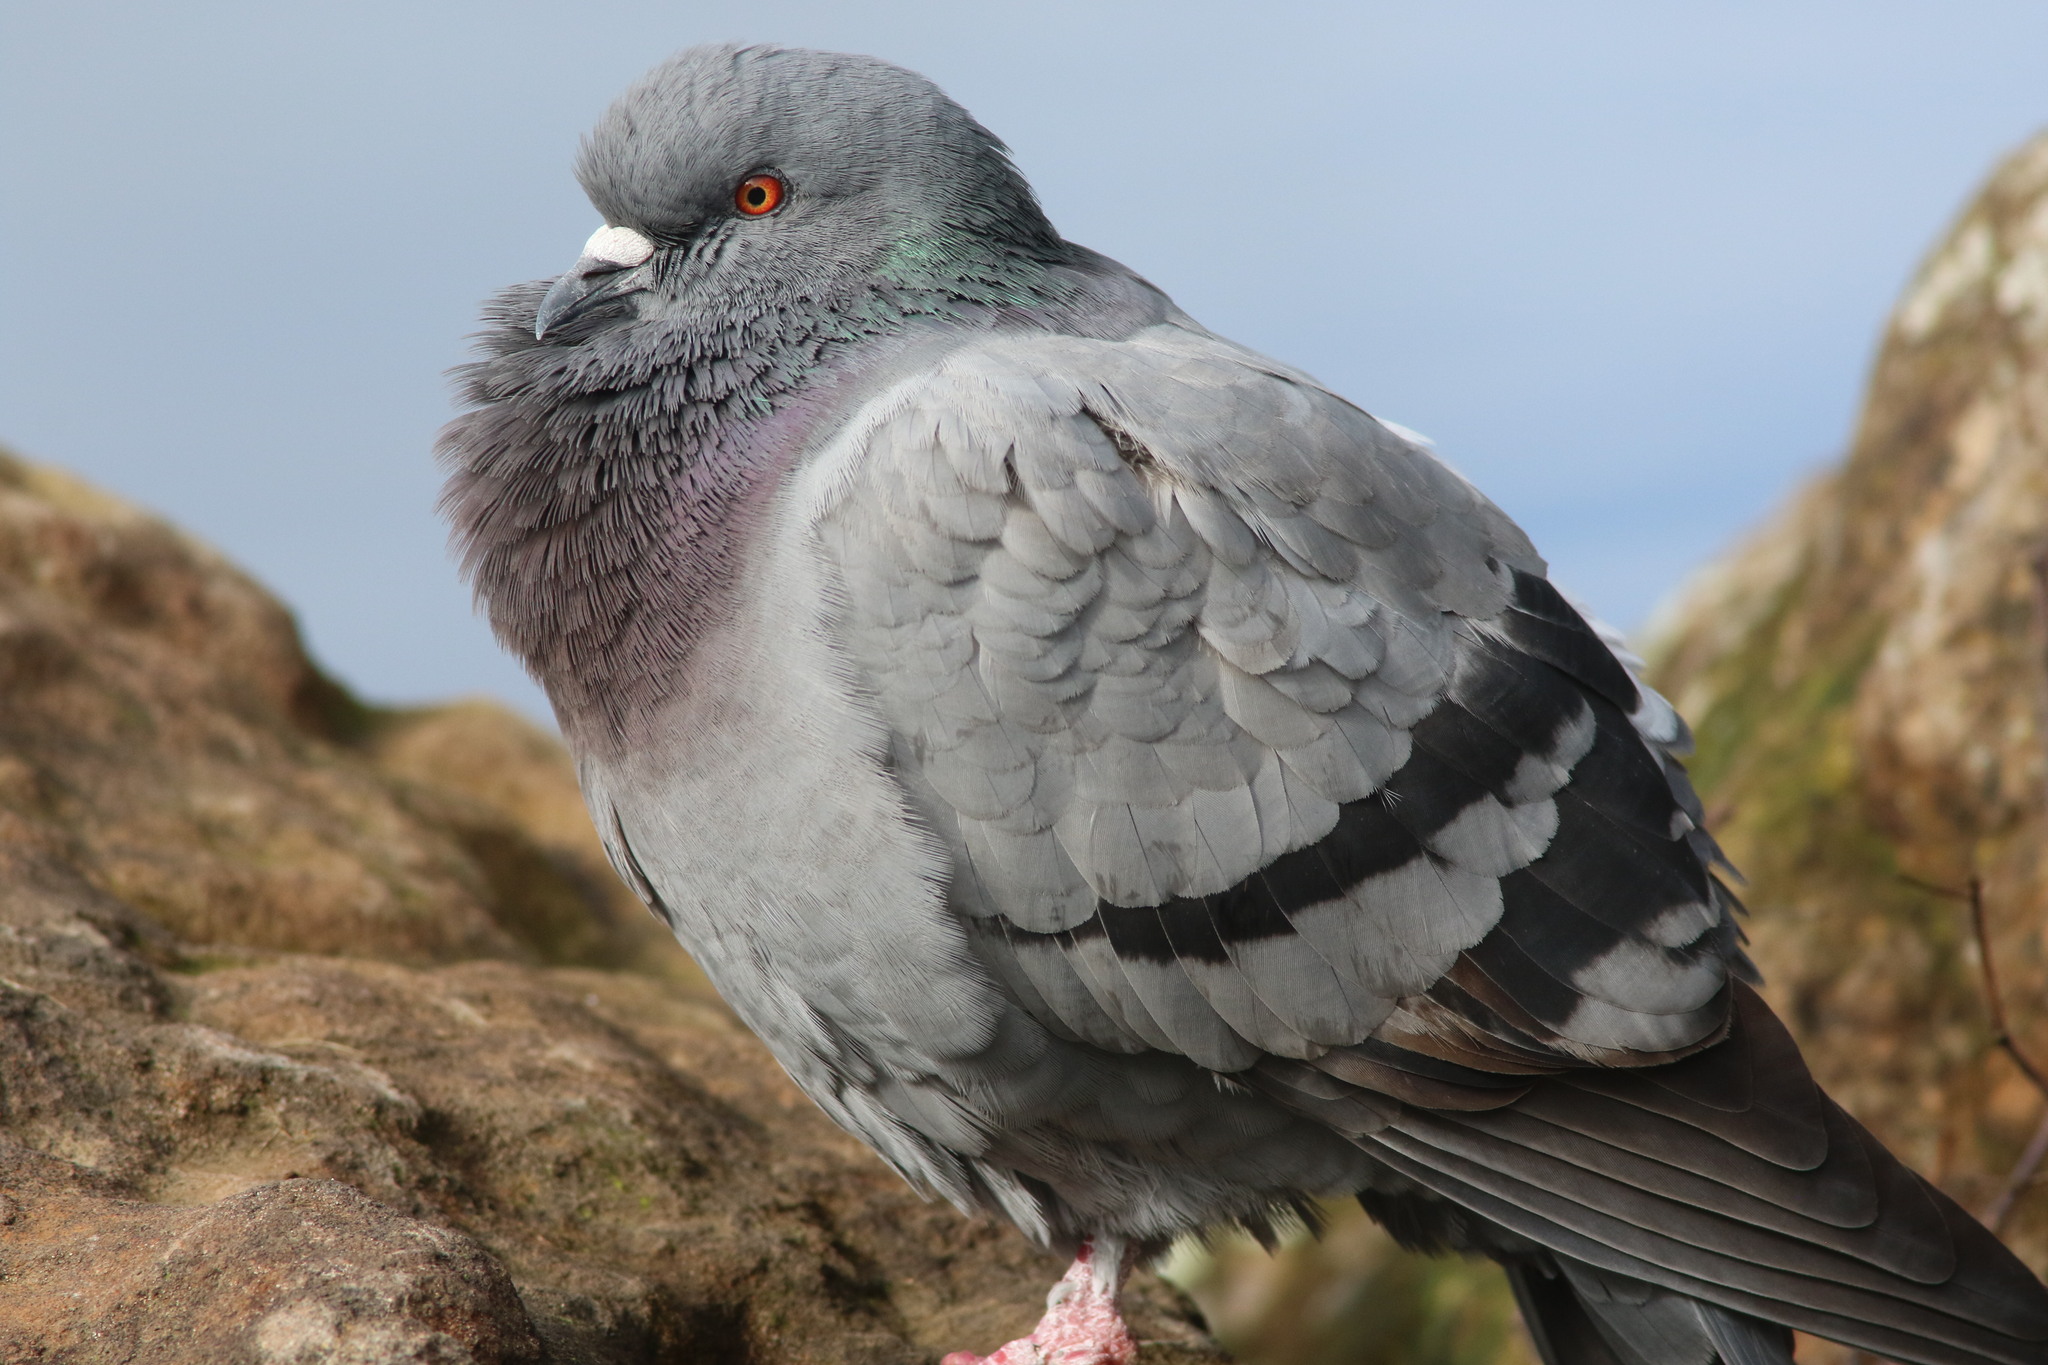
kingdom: Animalia
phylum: Chordata
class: Aves
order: Columbiformes
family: Columbidae
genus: Columba
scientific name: Columba livia
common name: Rock pigeon
